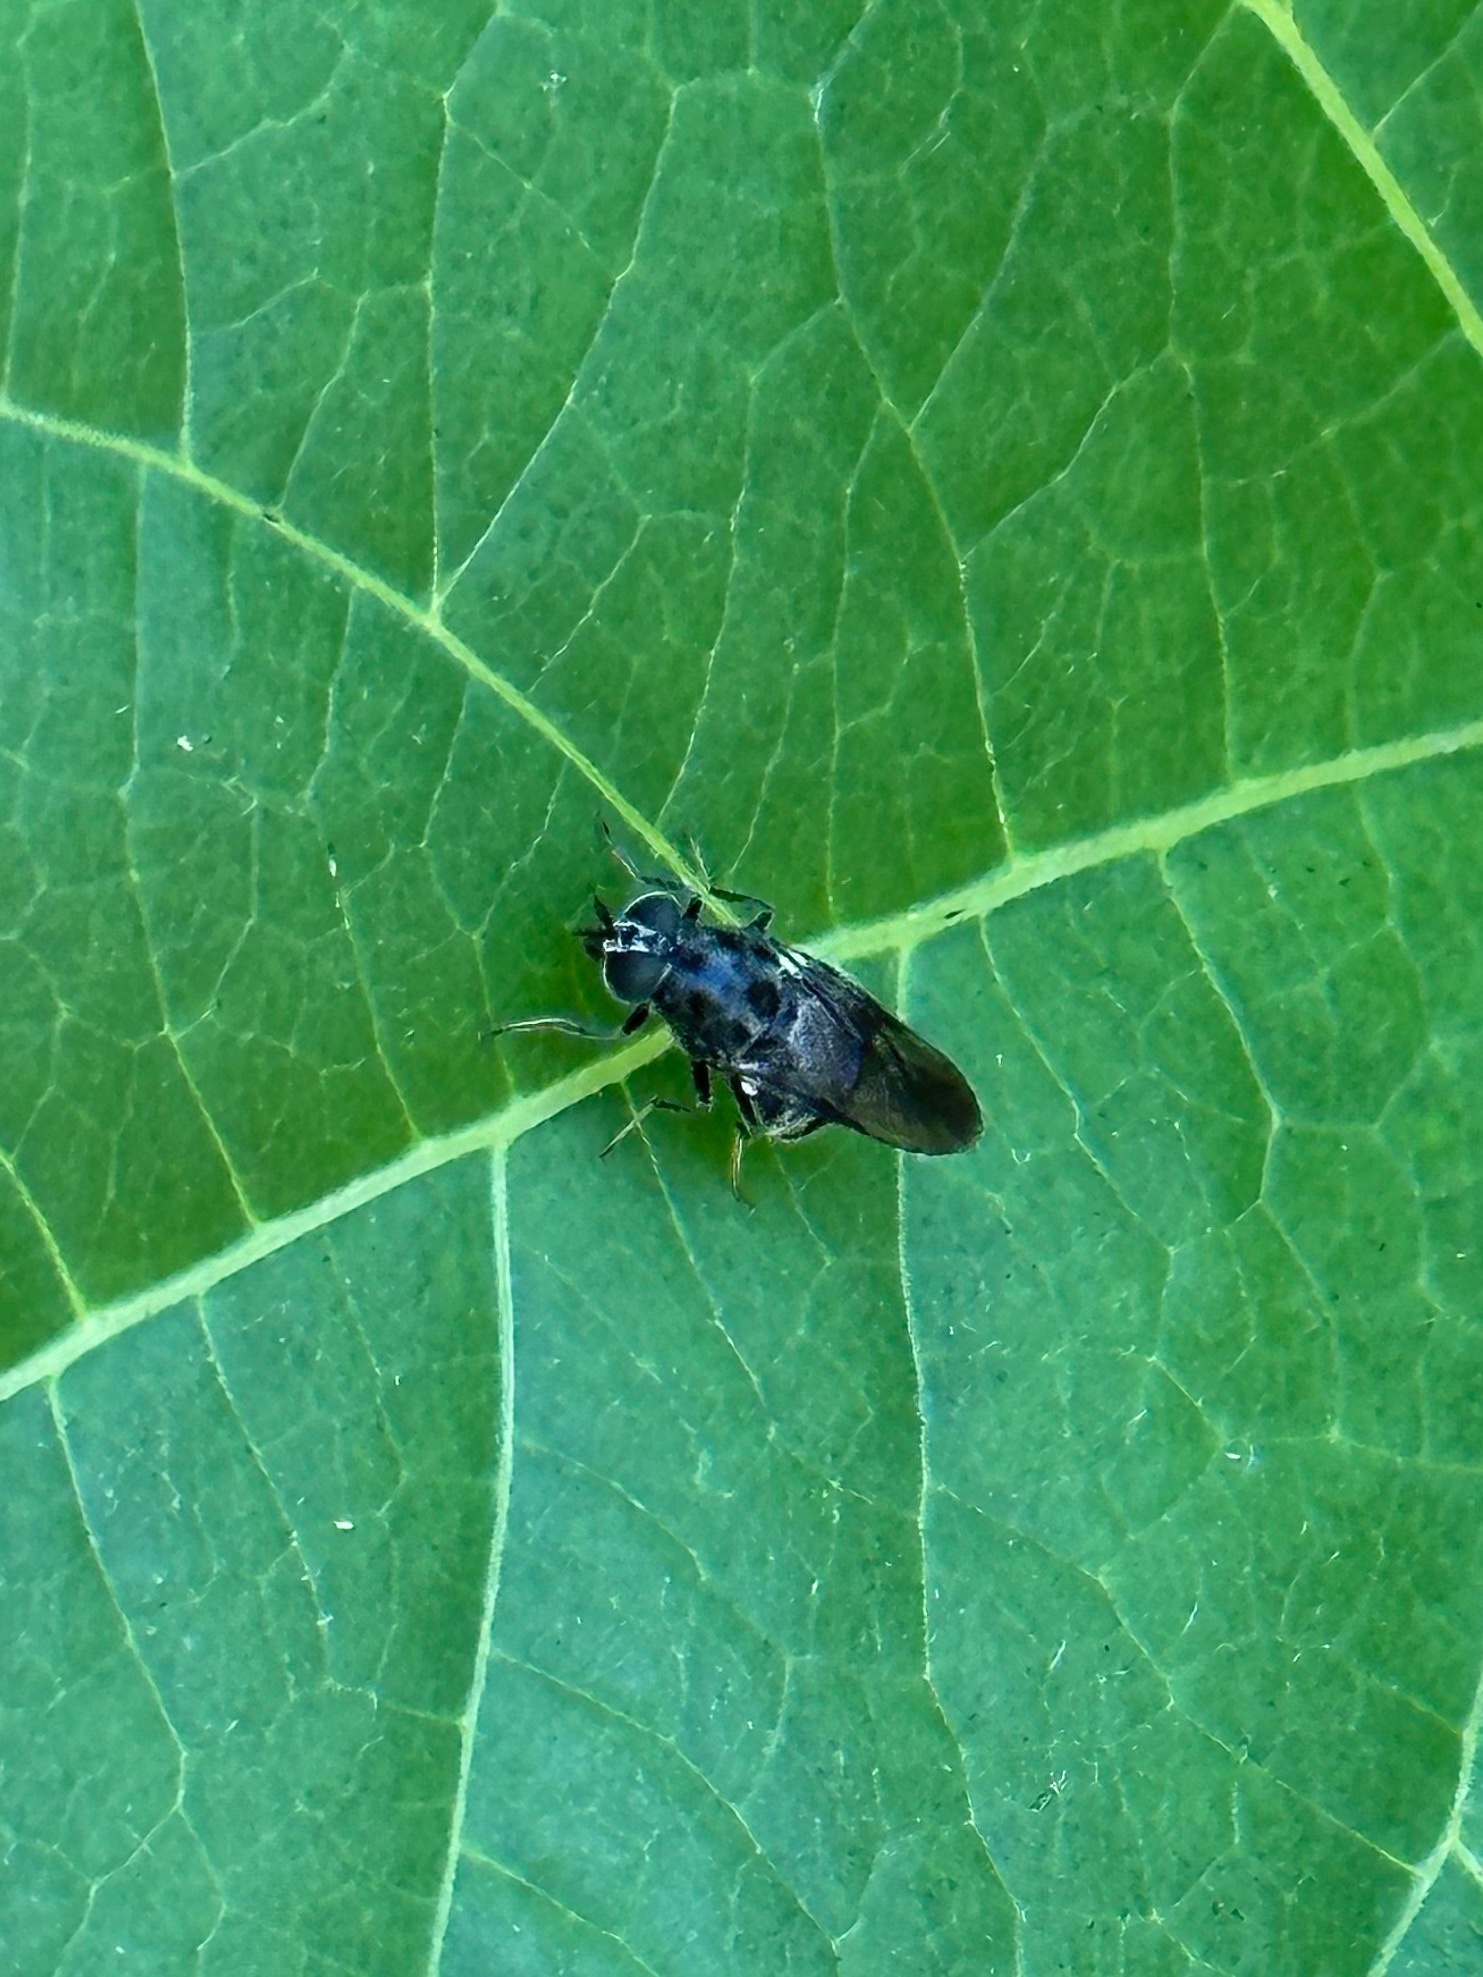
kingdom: Animalia
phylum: Arthropoda
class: Insecta
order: Diptera
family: Stratiomyidae
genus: Adoxomyia
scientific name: Adoxomyia subulata
